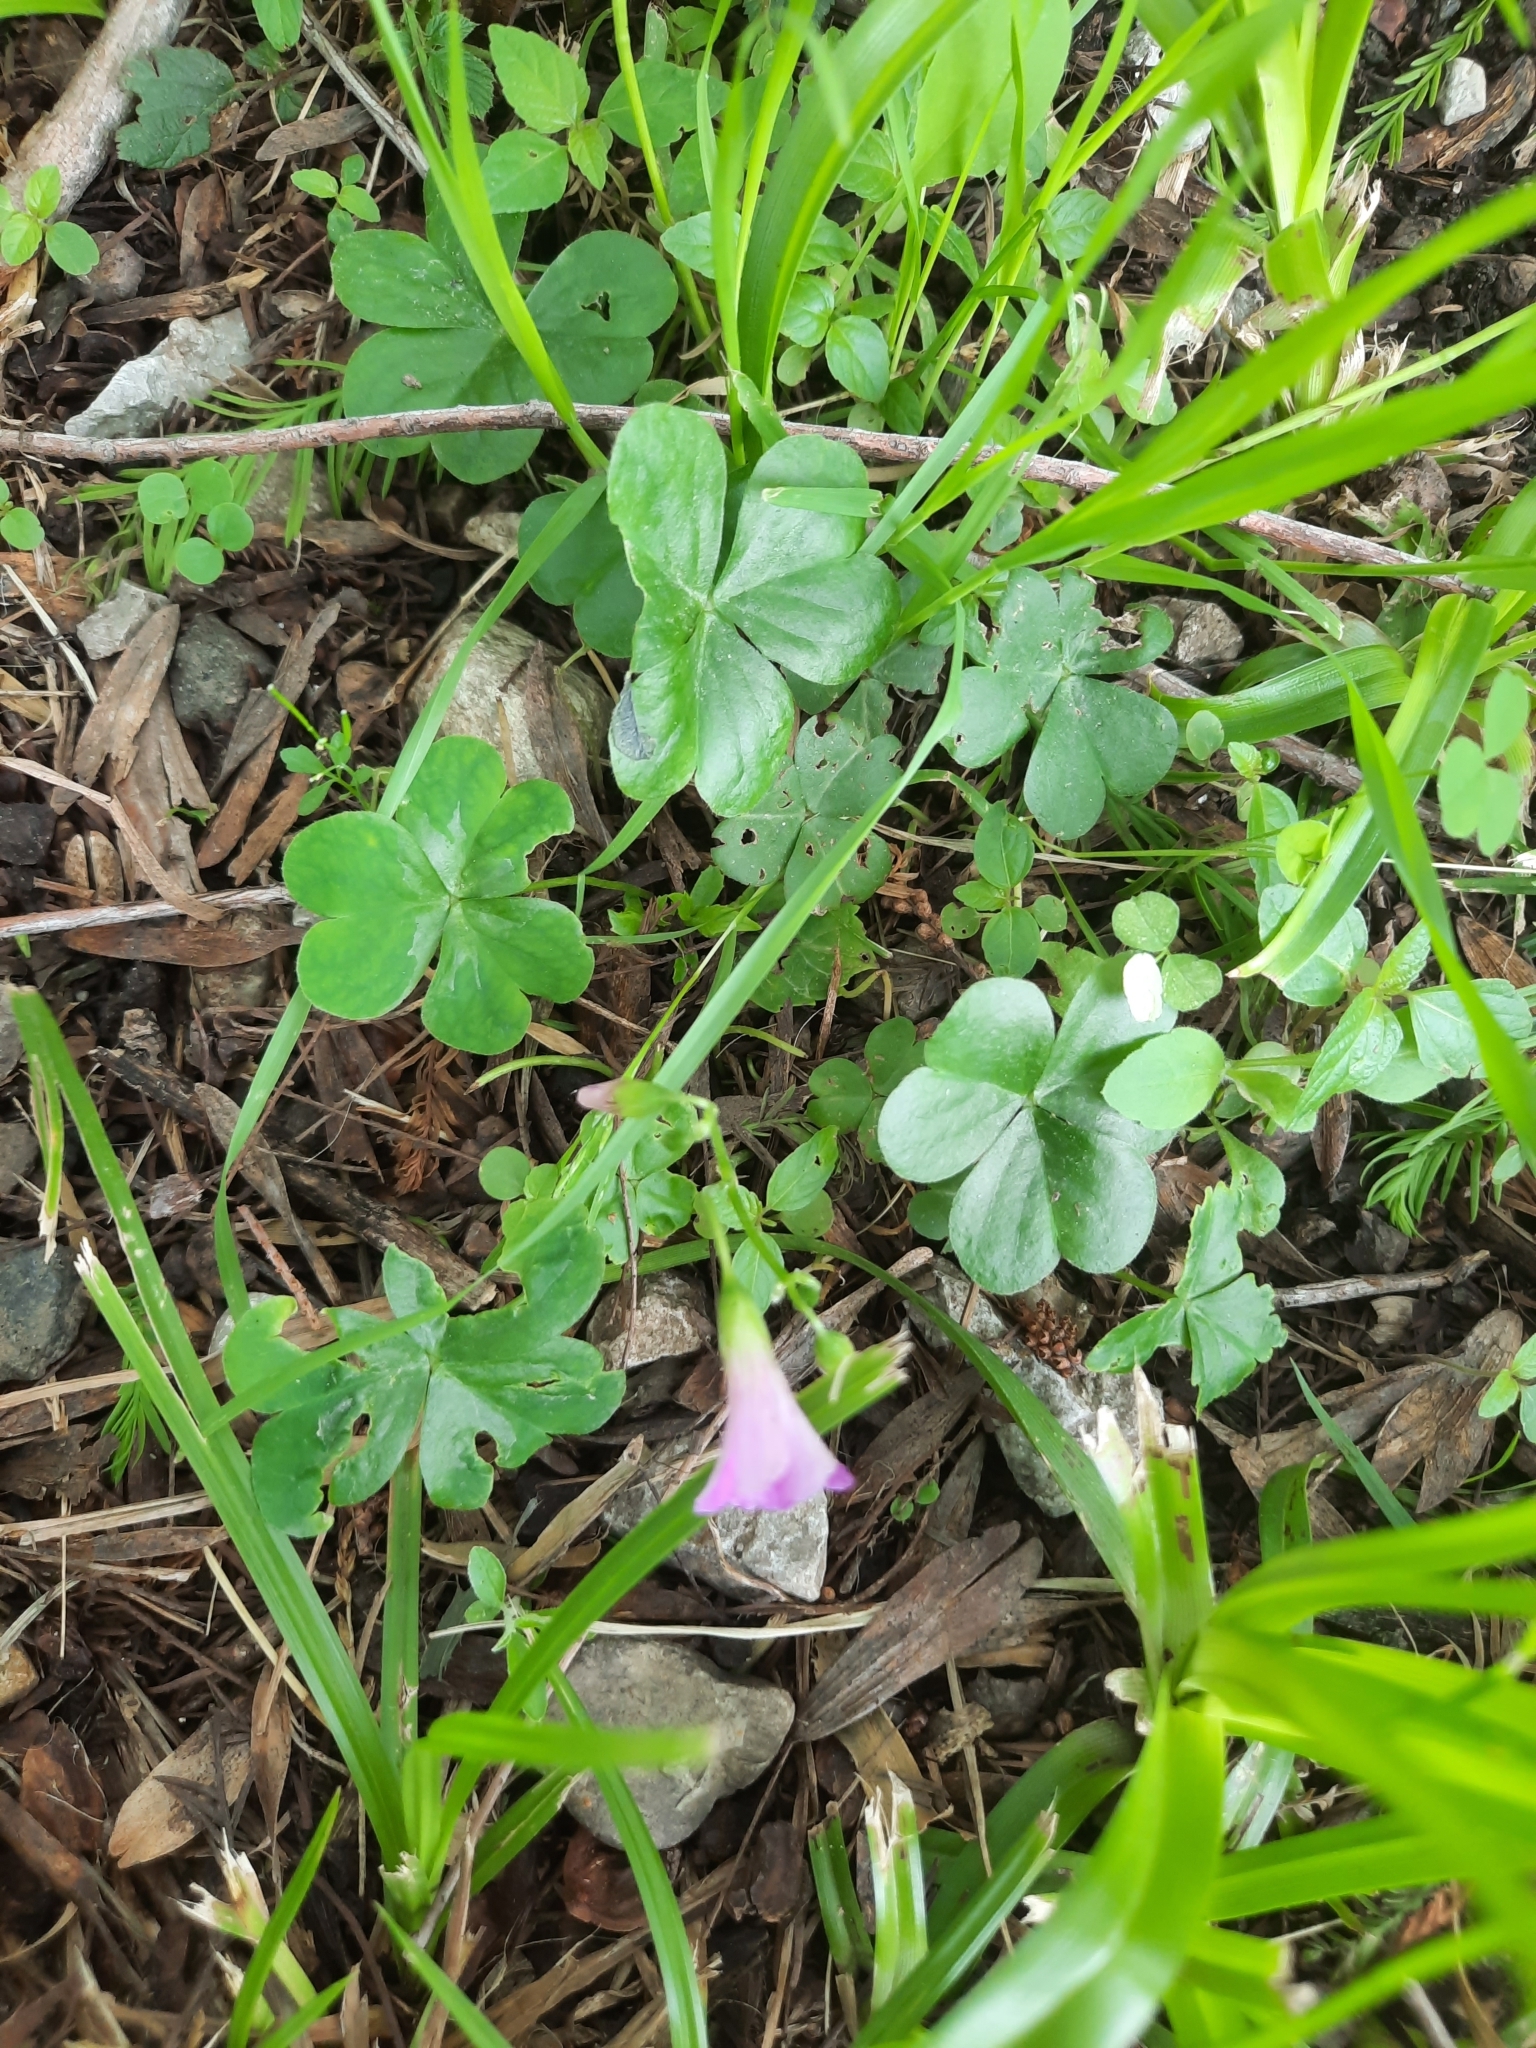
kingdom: Plantae
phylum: Tracheophyta
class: Magnoliopsida
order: Oxalidales
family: Oxalidaceae
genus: Oxalis
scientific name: Oxalis debilis
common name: Large-flowered pink-sorrel
